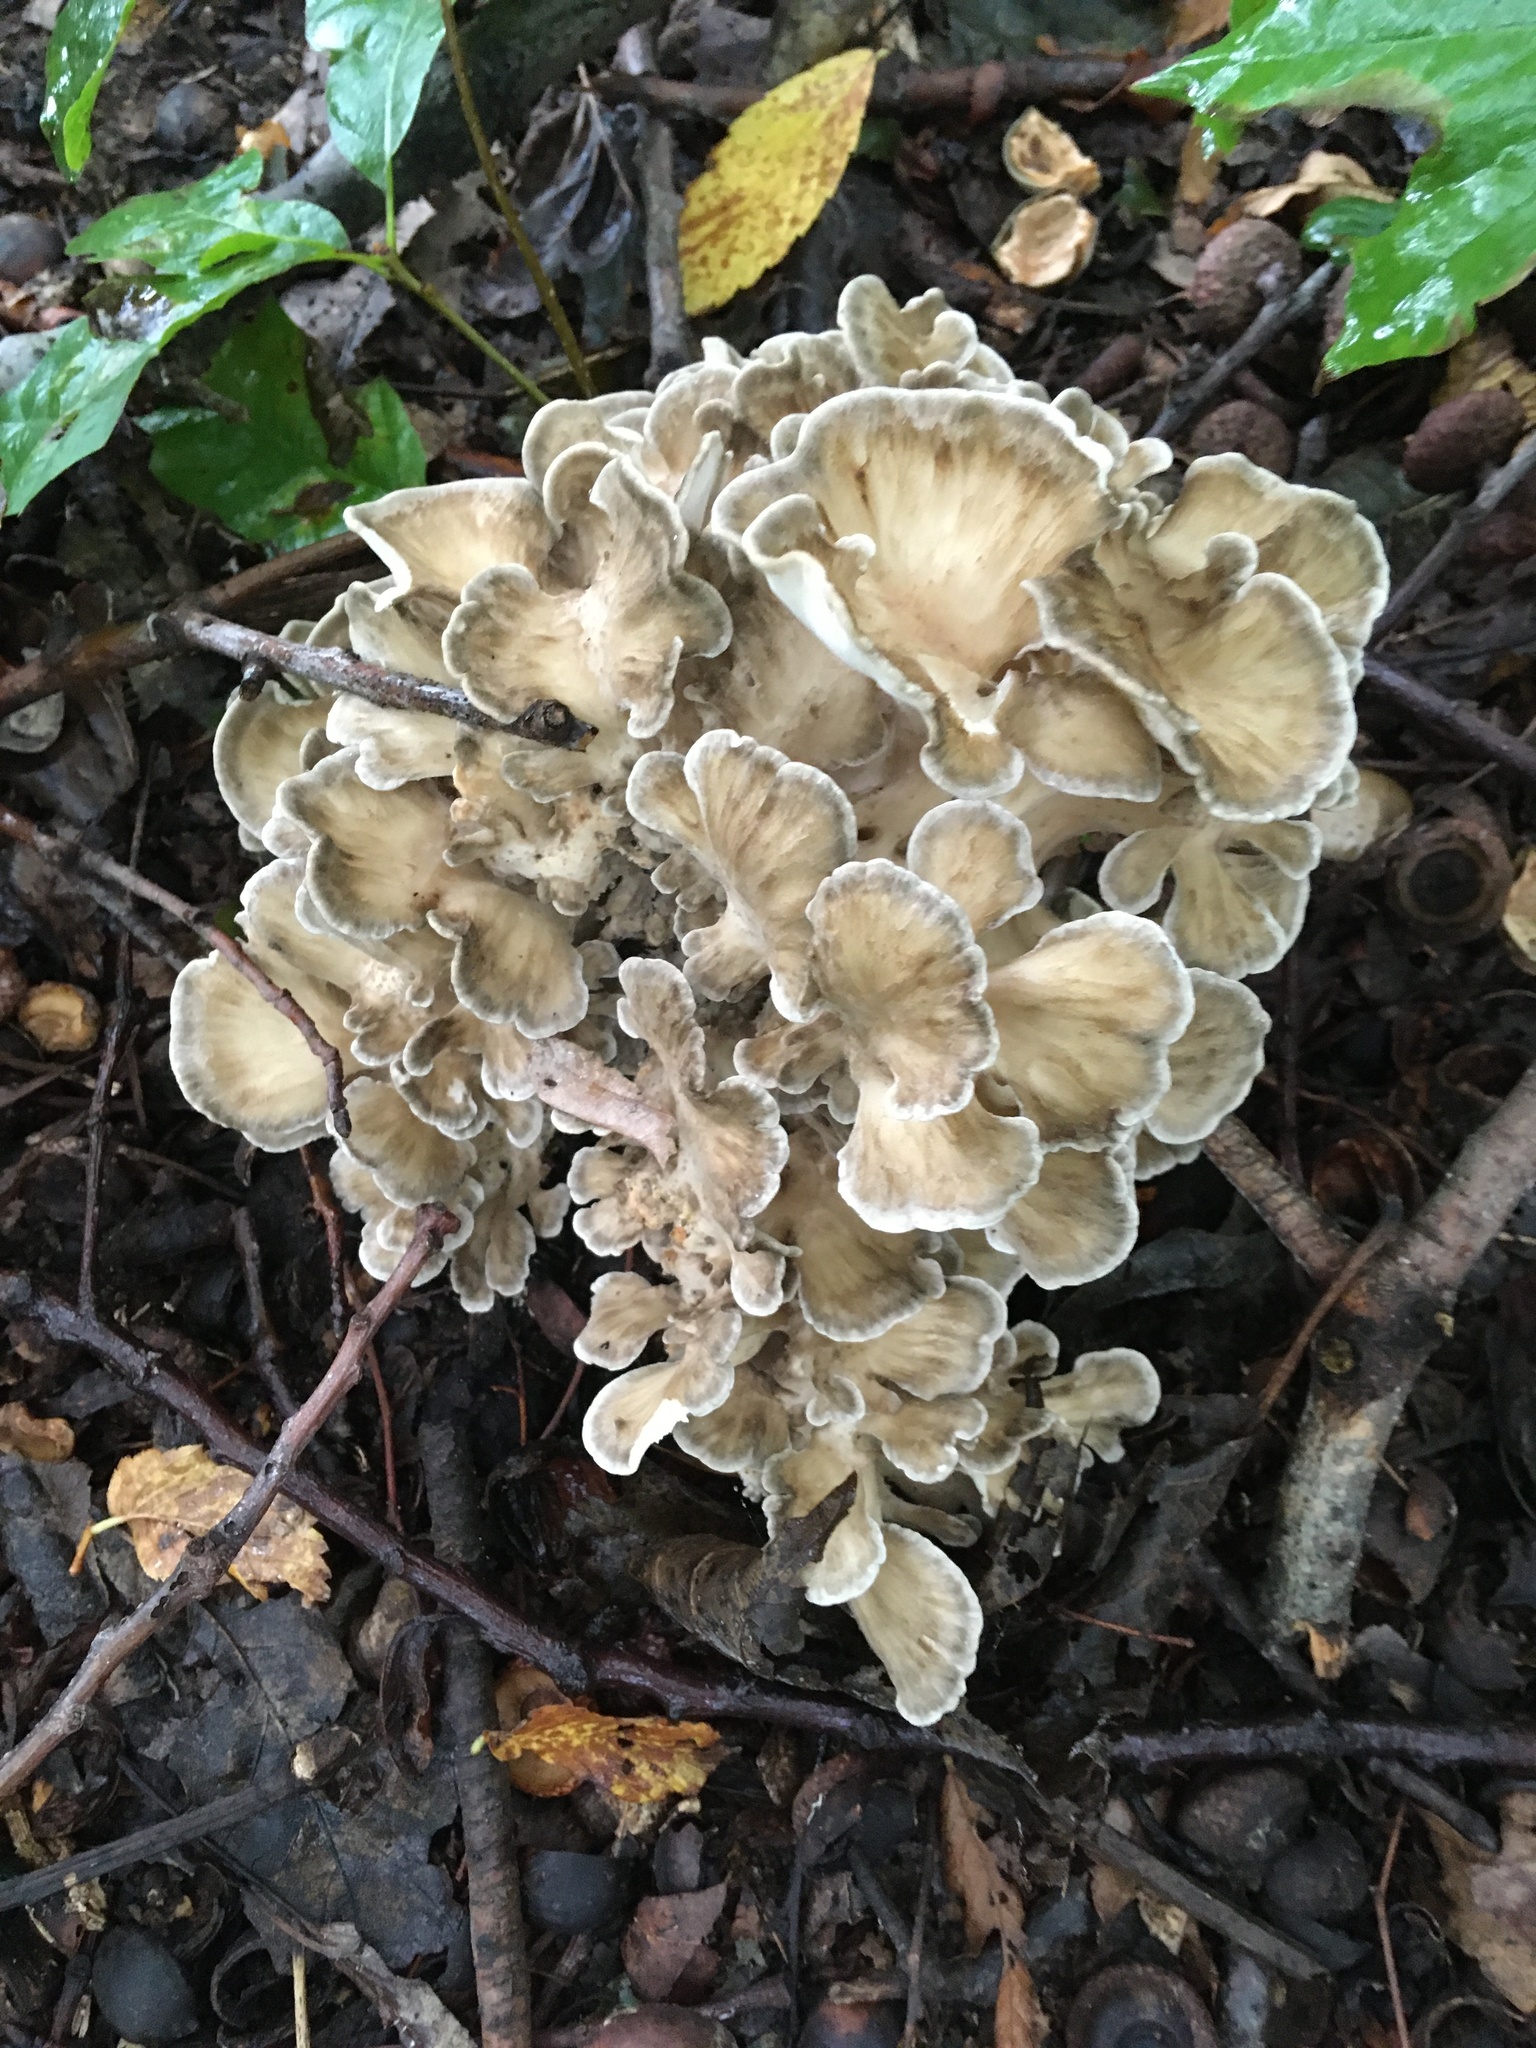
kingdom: Fungi
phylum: Basidiomycota
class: Agaricomycetes
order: Polyporales
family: Grifolaceae
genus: Grifola
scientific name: Grifola frondosa
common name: Hen of the woods
